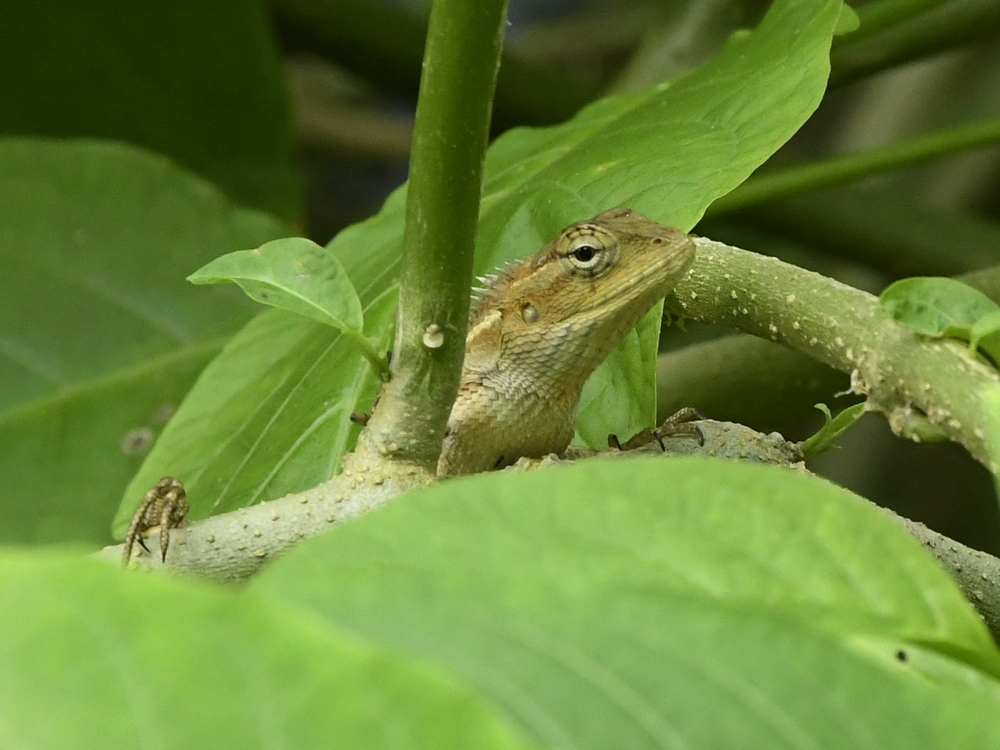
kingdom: Animalia
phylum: Chordata
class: Squamata
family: Agamidae
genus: Calotes
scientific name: Calotes versicolor
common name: Oriental garden lizard
